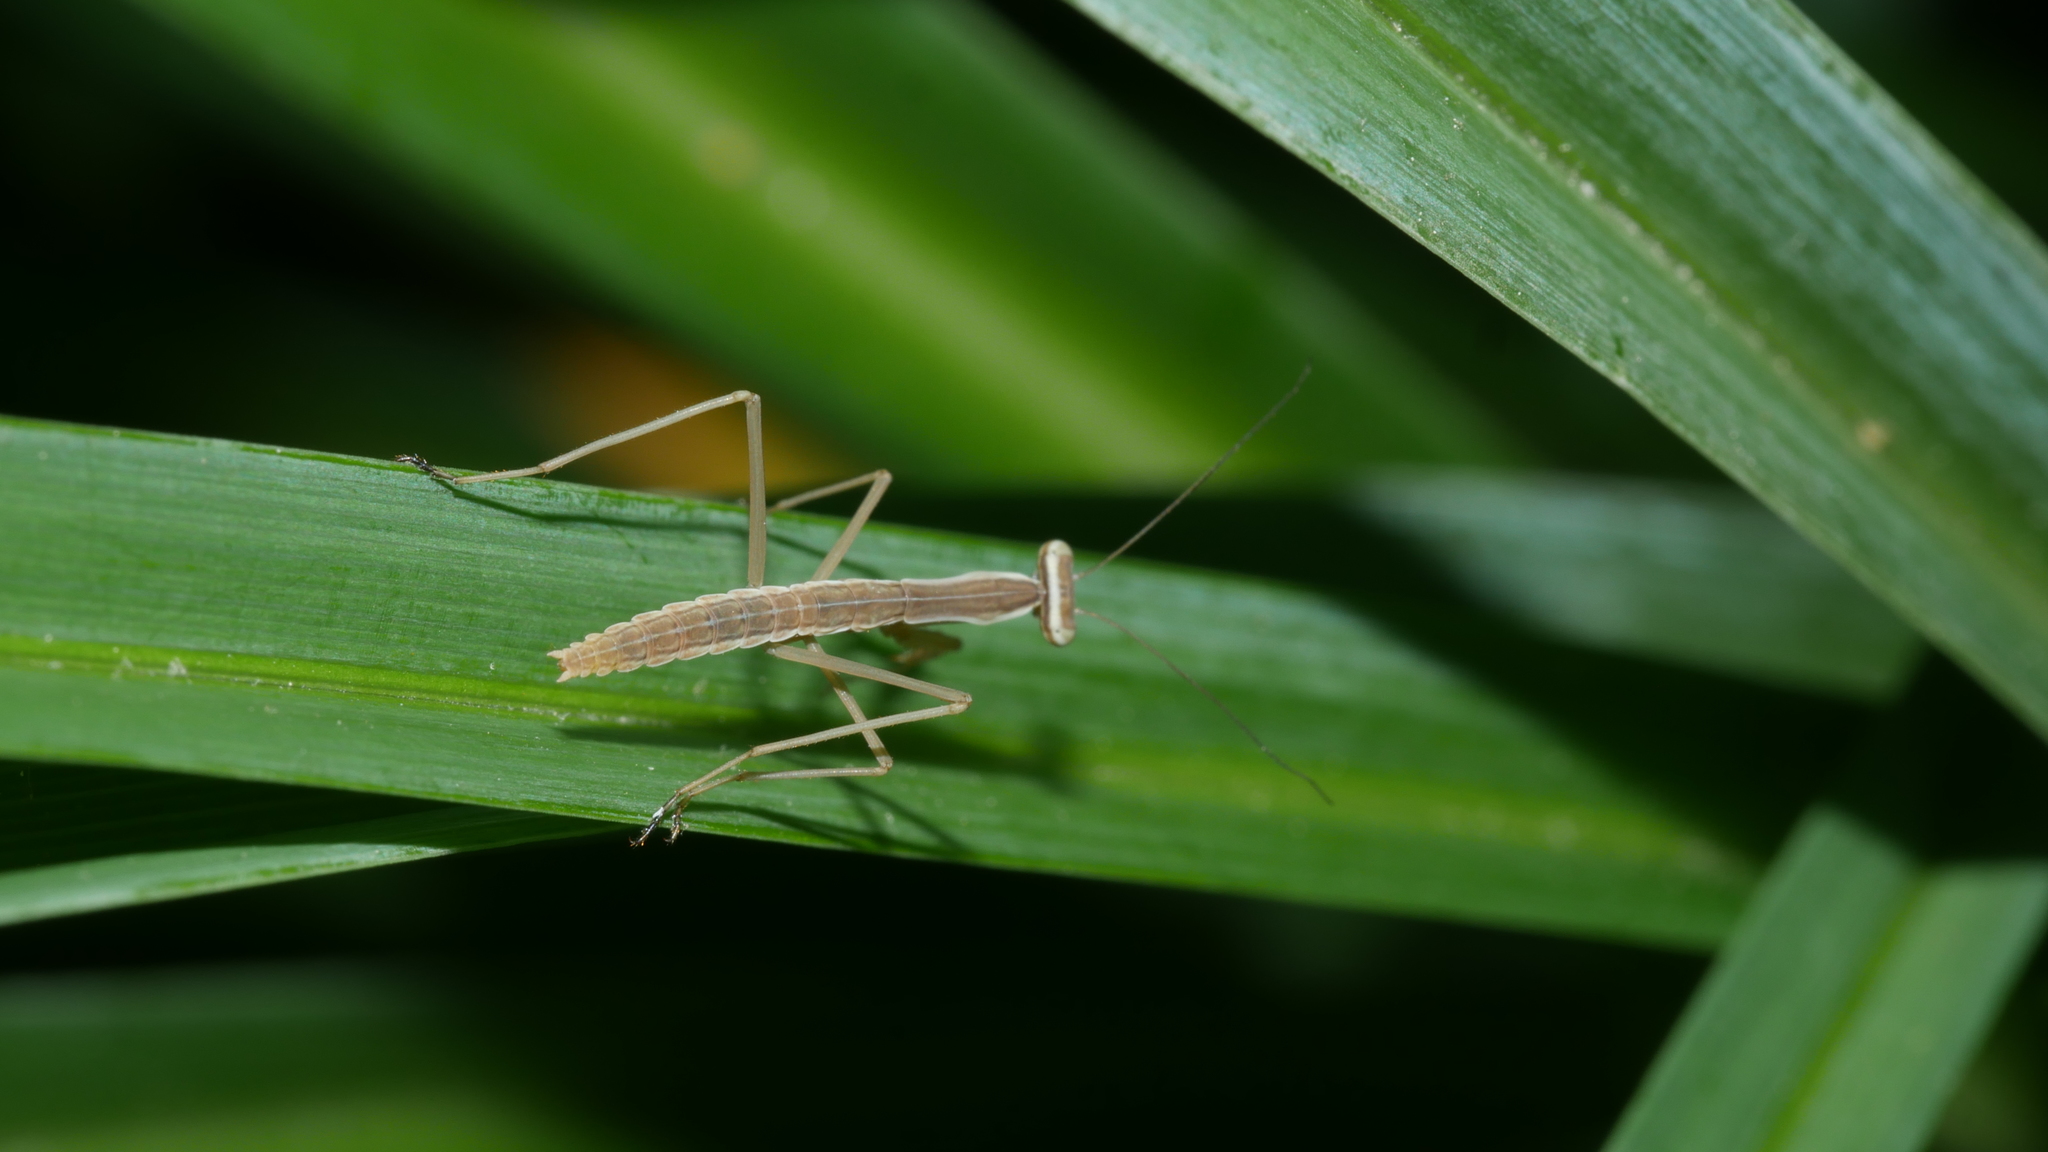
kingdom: Animalia
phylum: Arthropoda
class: Insecta
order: Mantodea
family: Mantidae
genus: Tenodera
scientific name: Tenodera sinensis
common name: Chinese mantis
